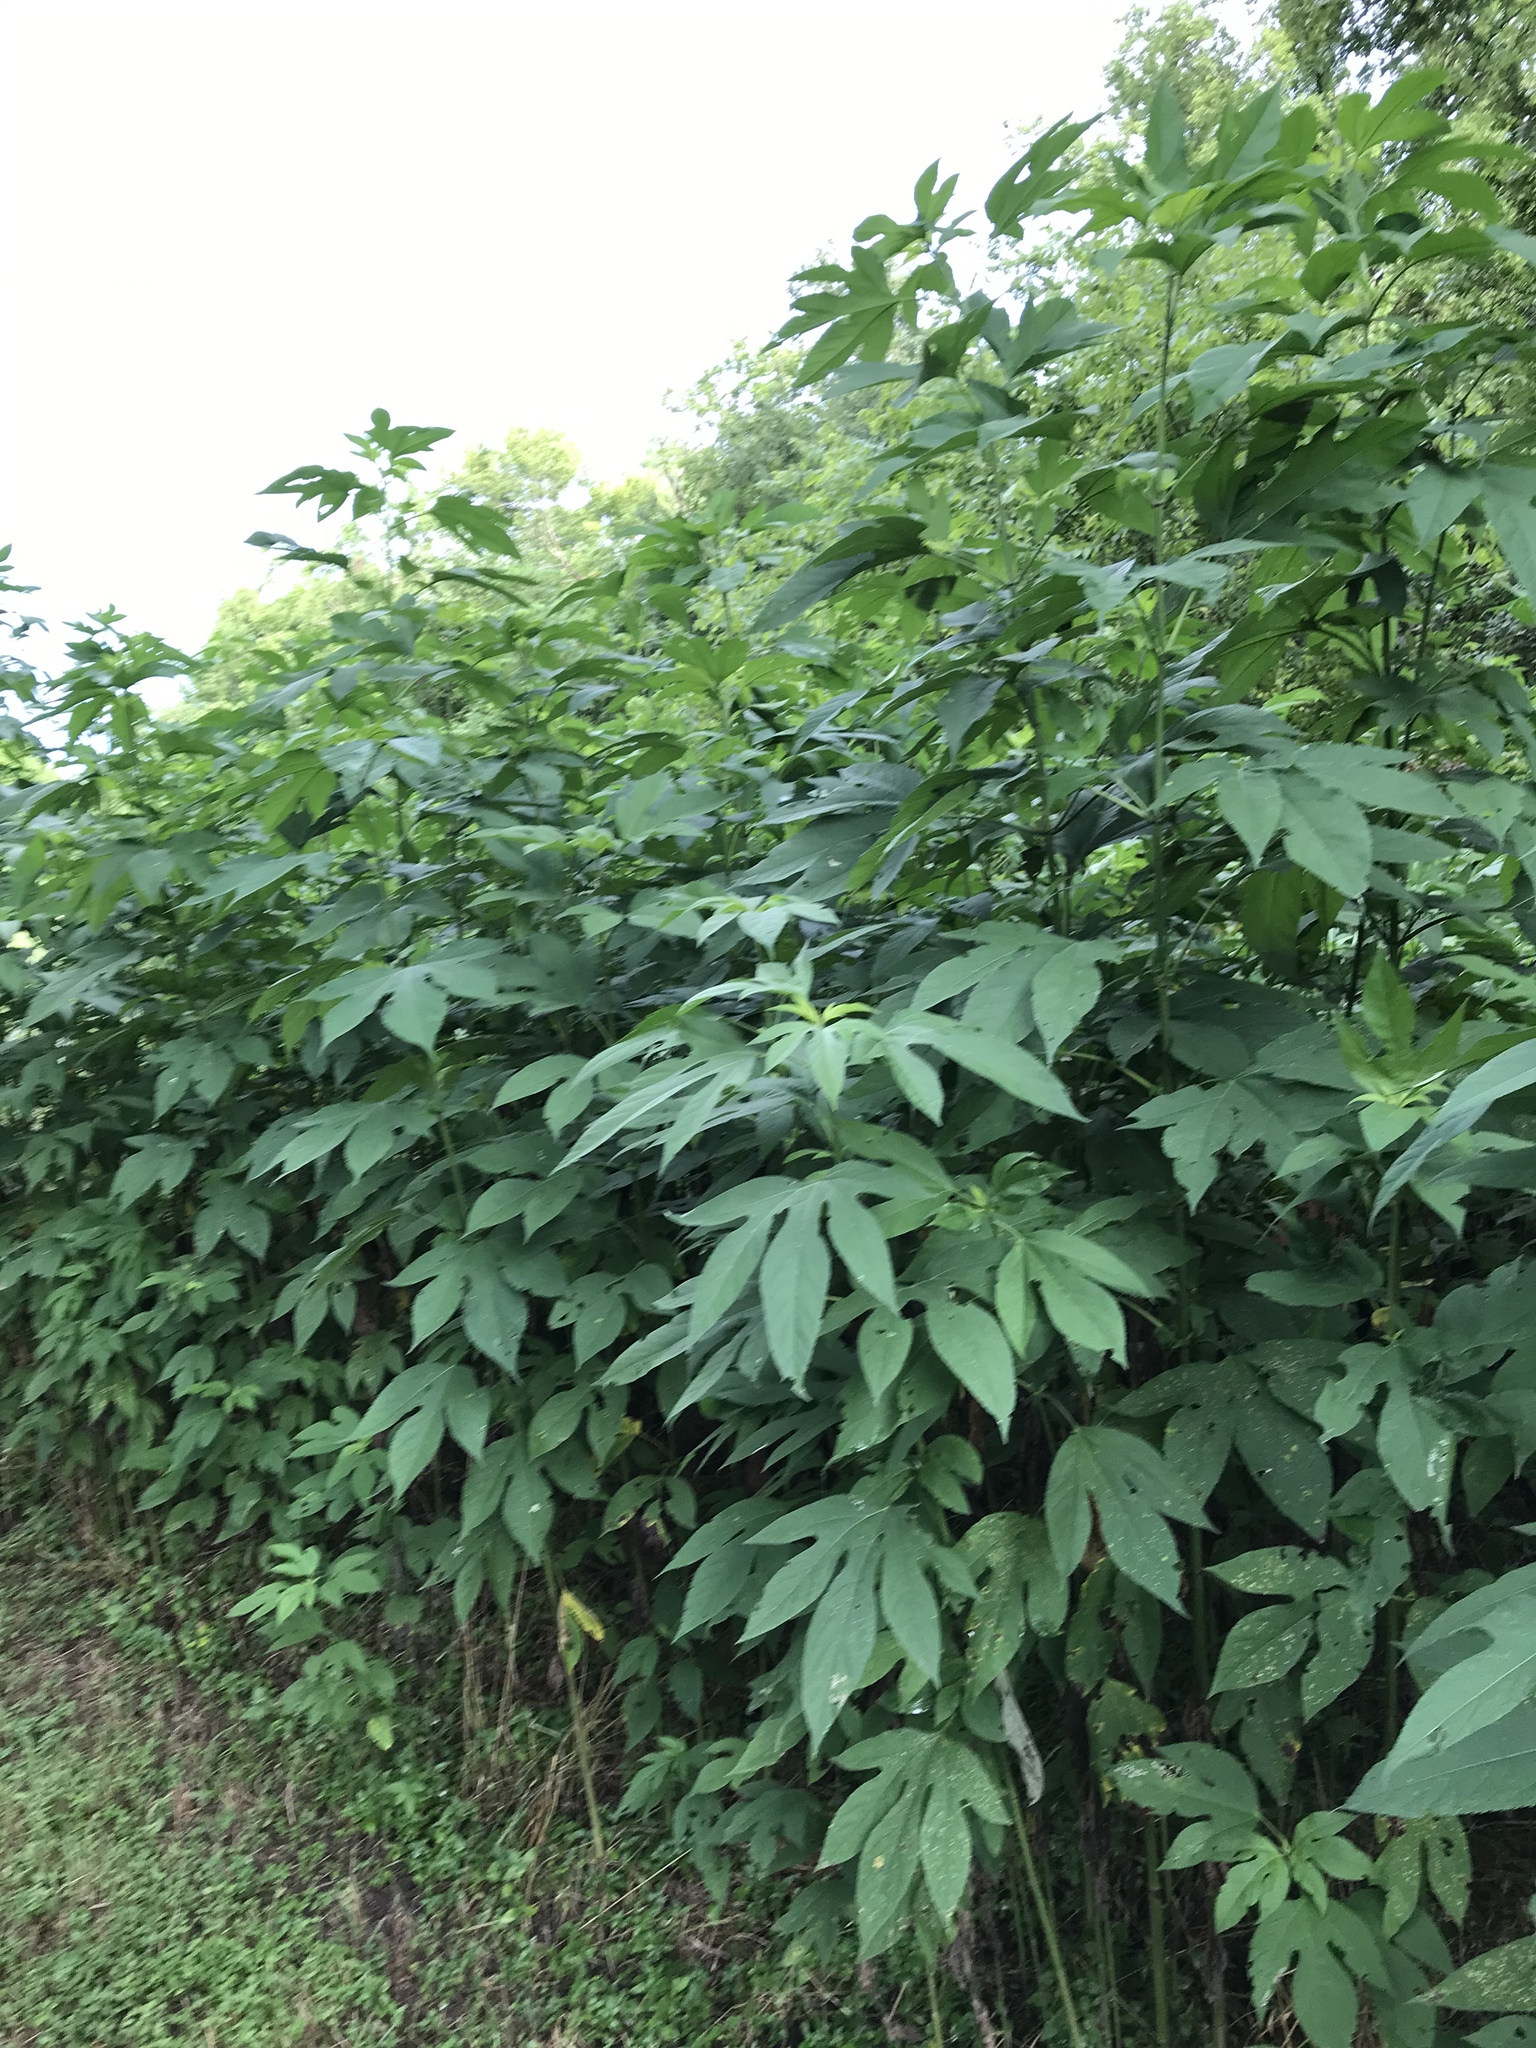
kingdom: Plantae
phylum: Tracheophyta
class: Magnoliopsida
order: Asterales
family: Asteraceae
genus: Ambrosia
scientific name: Ambrosia trifida
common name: Giant ragweed
